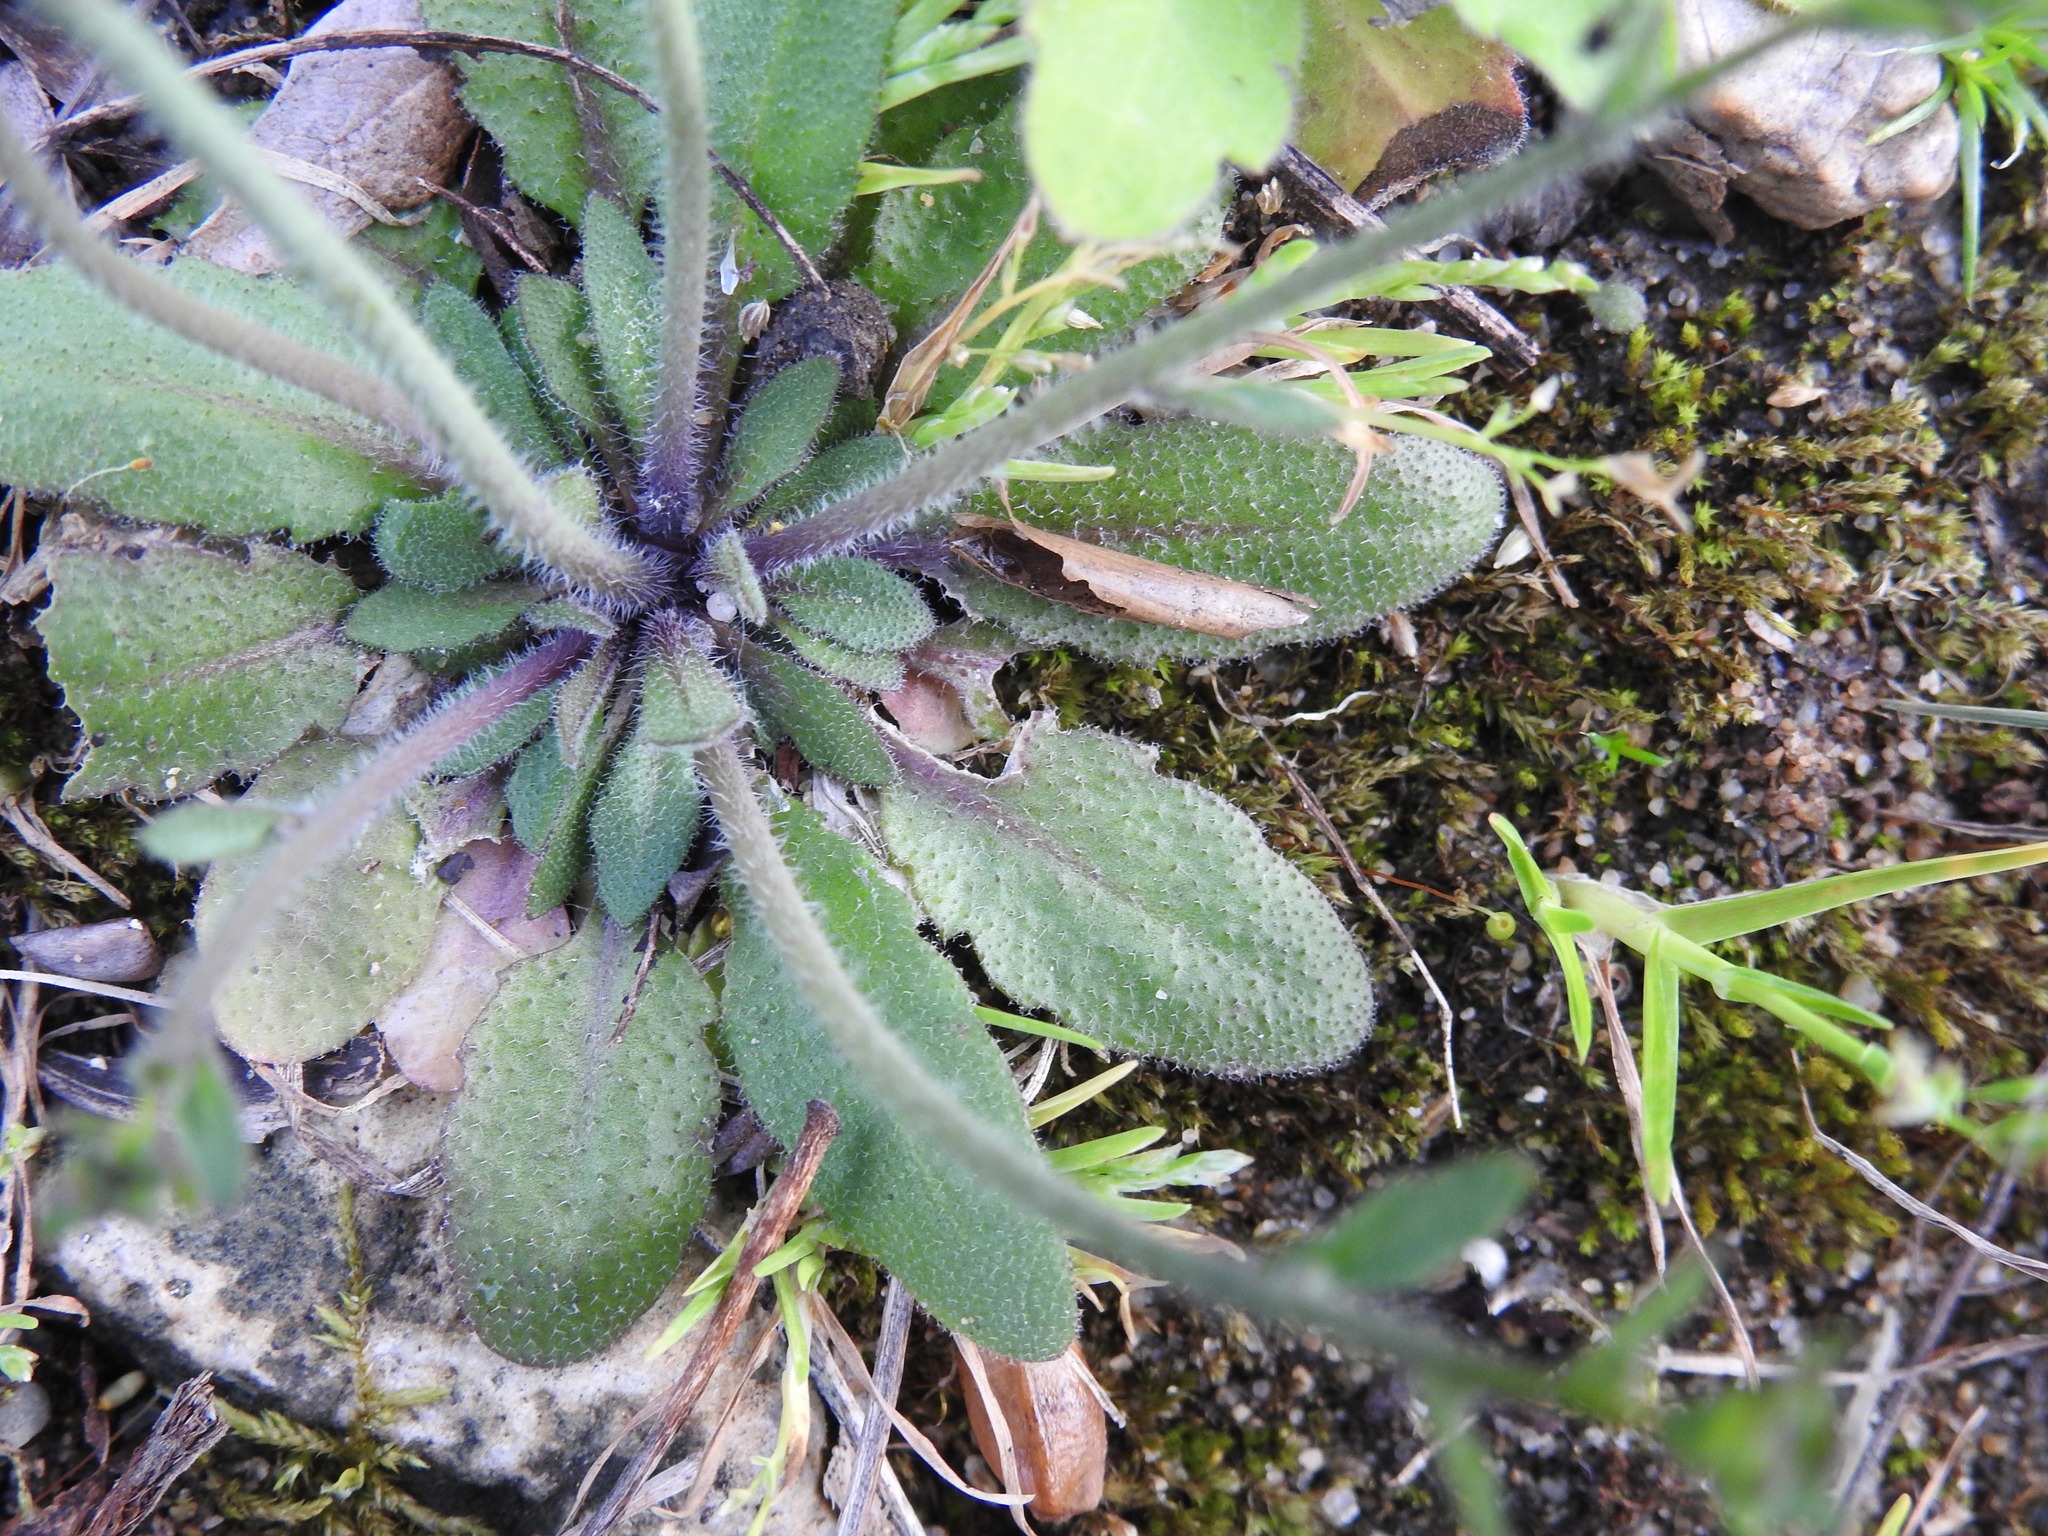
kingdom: Plantae
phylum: Tracheophyta
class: Magnoliopsida
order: Brassicales
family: Brassicaceae
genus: Arabidopsis
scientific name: Arabidopsis thaliana
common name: Thale cress
